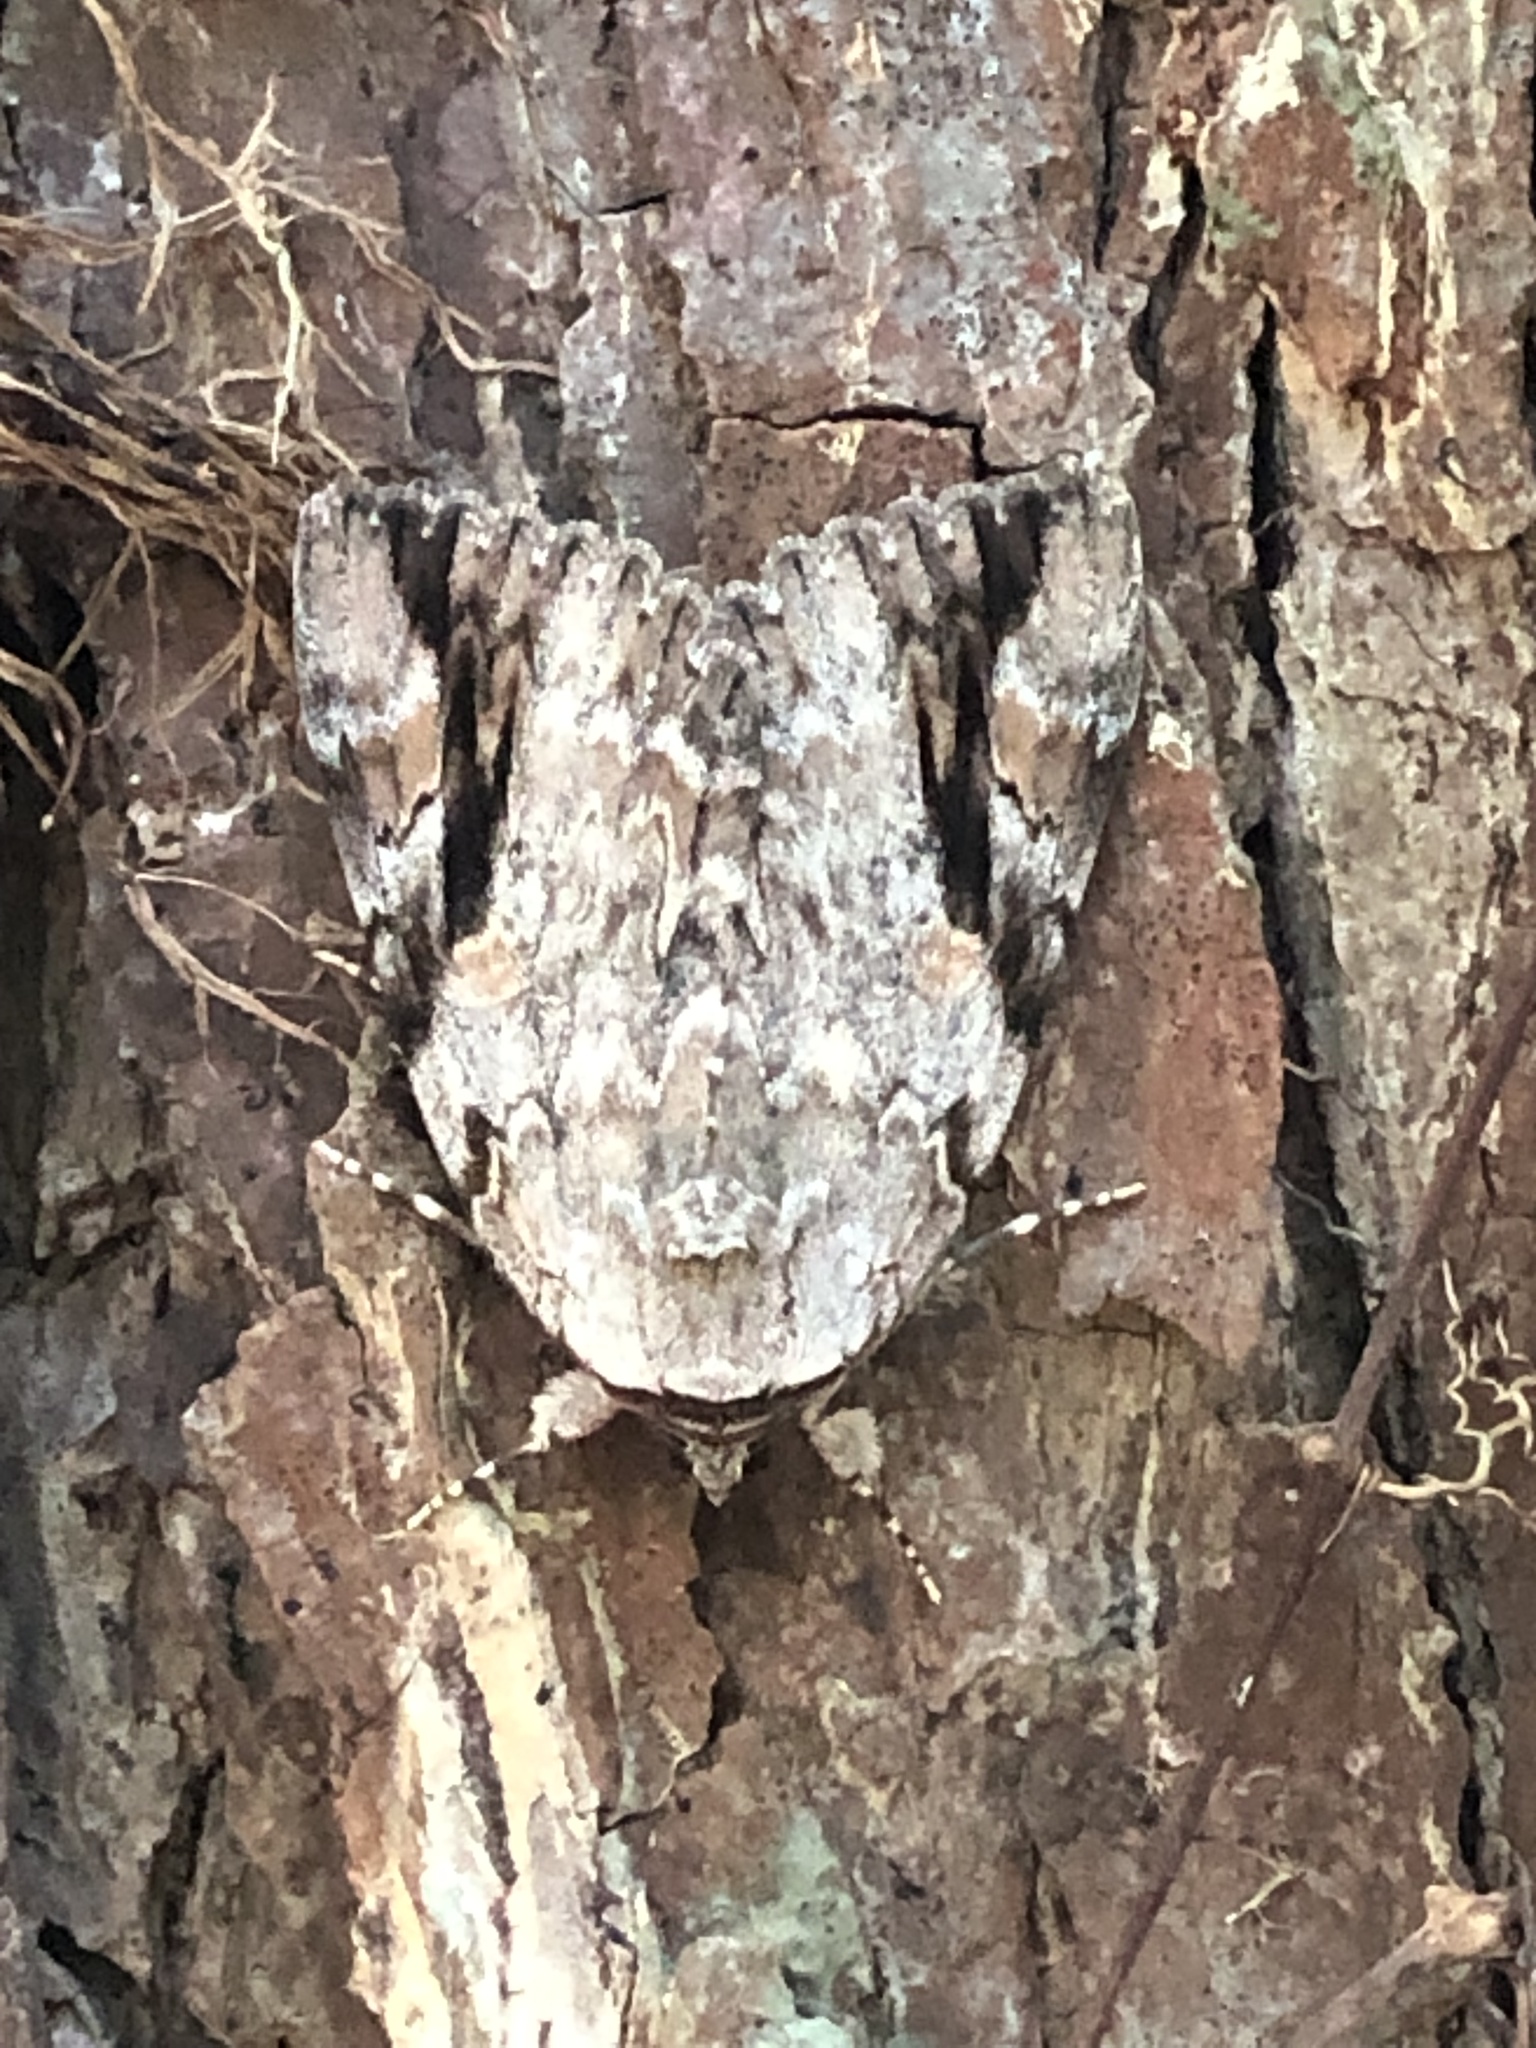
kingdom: Animalia
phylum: Arthropoda
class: Insecta
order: Lepidoptera
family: Erebidae
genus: Catocala
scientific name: Catocala maestosa
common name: Sad underwing
